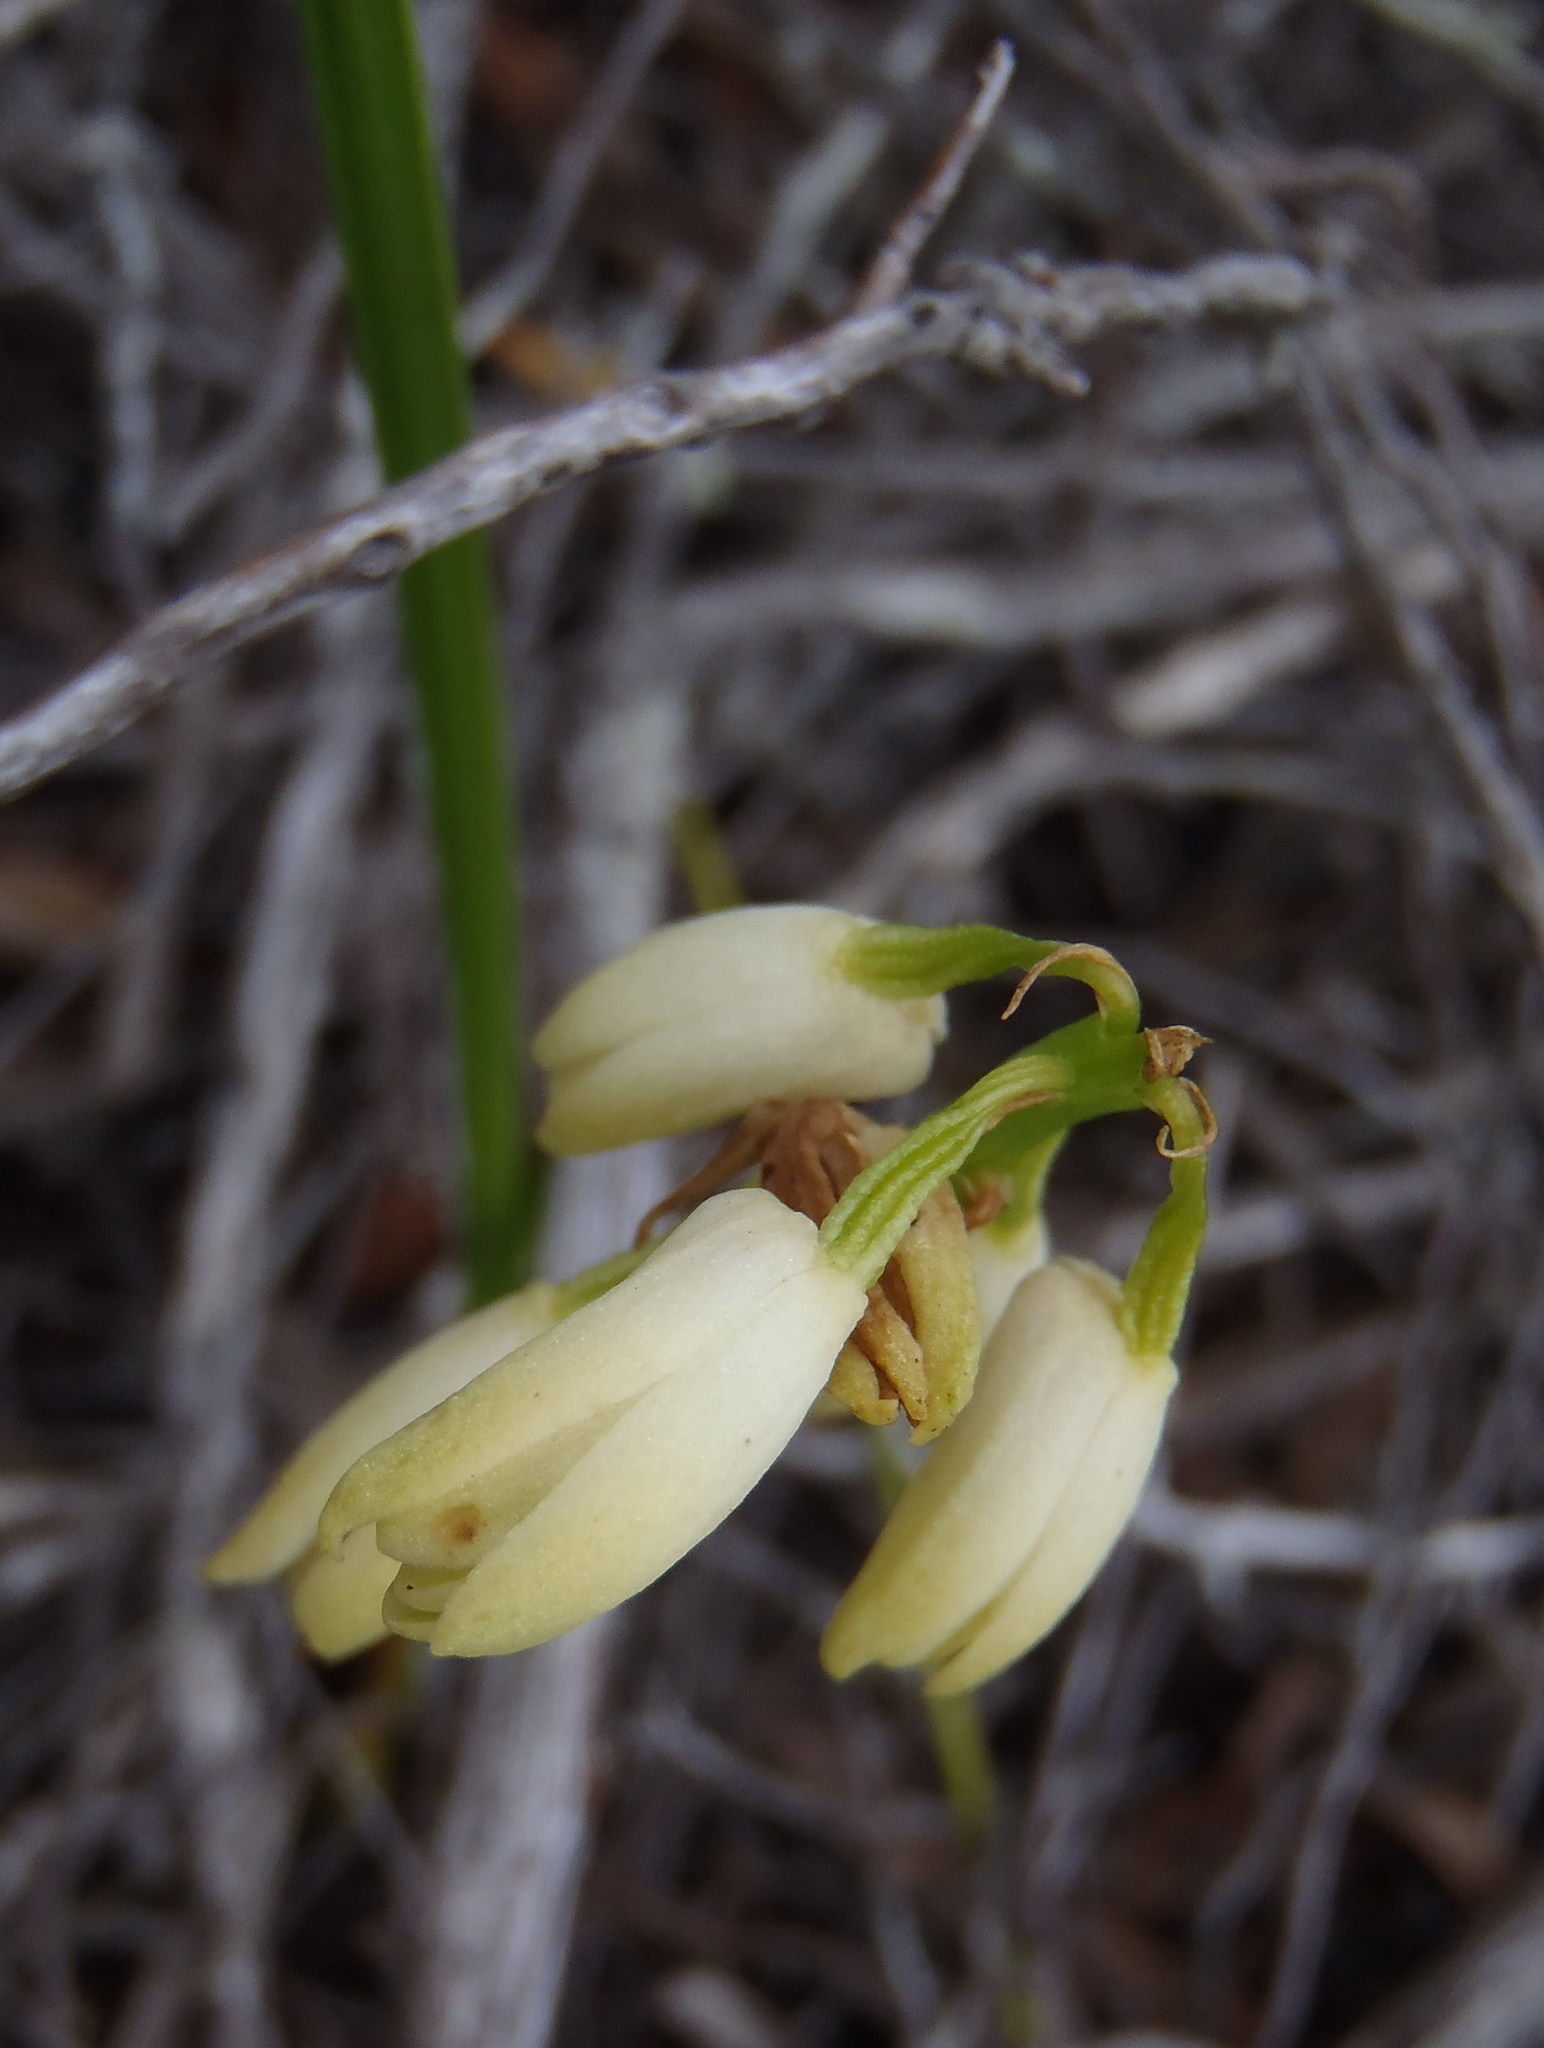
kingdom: Plantae
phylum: Tracheophyta
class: Liliopsida
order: Asparagales
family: Orchidaceae
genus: Eulophia
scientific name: Eulophia aculeata
